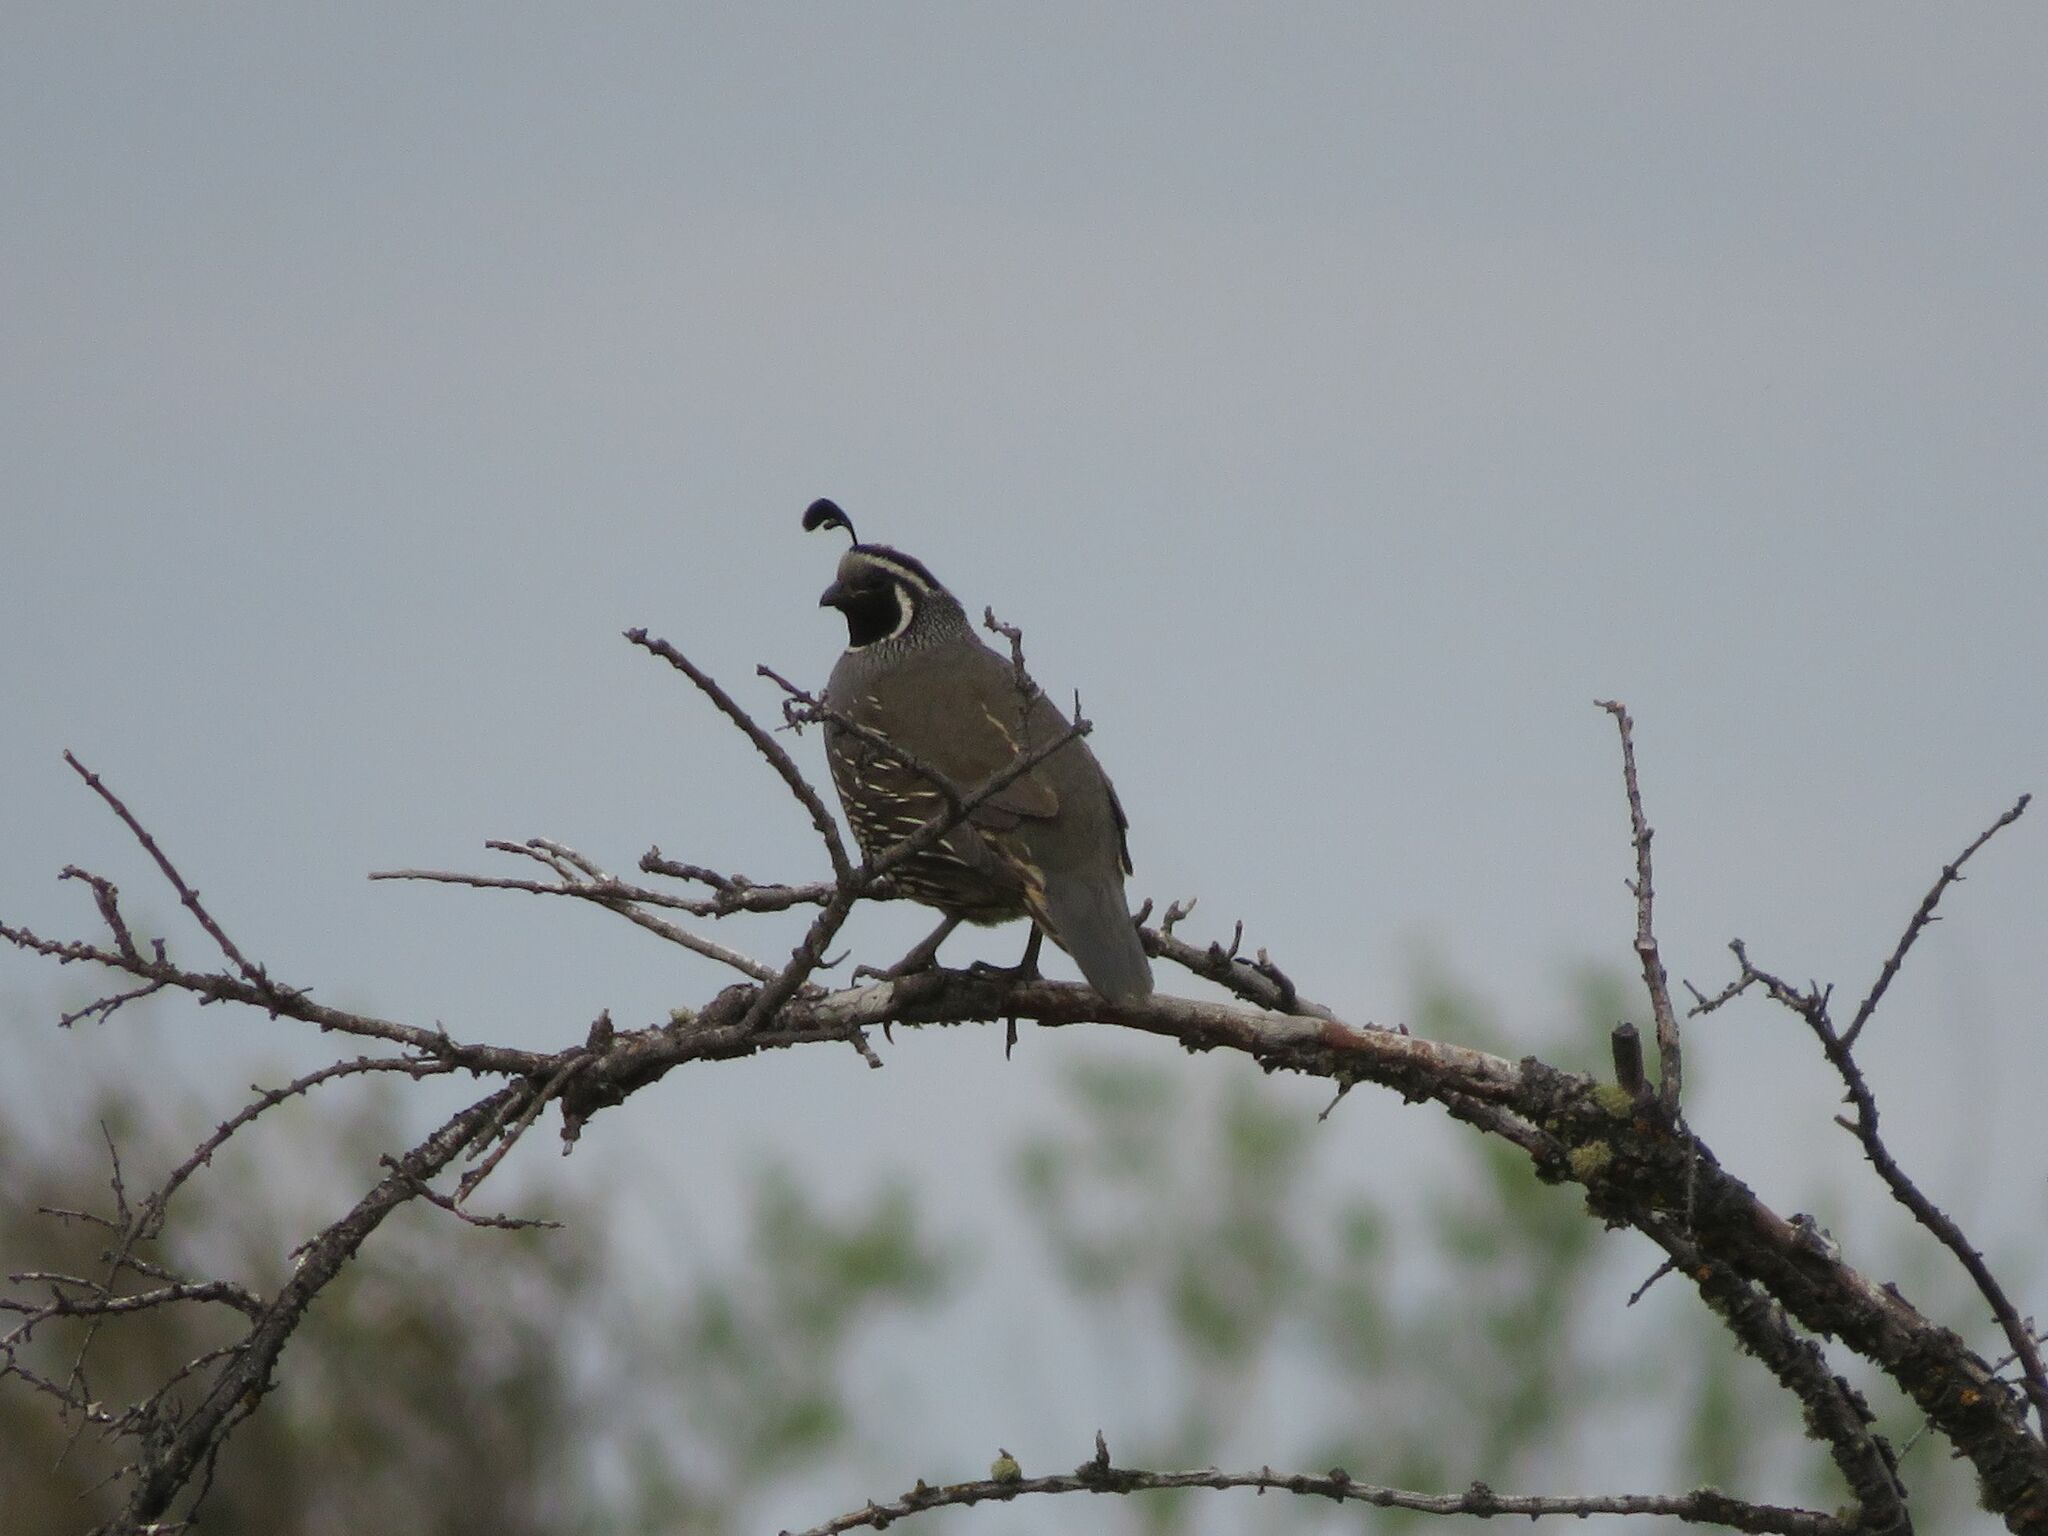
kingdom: Animalia
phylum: Chordata
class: Aves
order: Galliformes
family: Odontophoridae
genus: Callipepla
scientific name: Callipepla californica
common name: California quail
